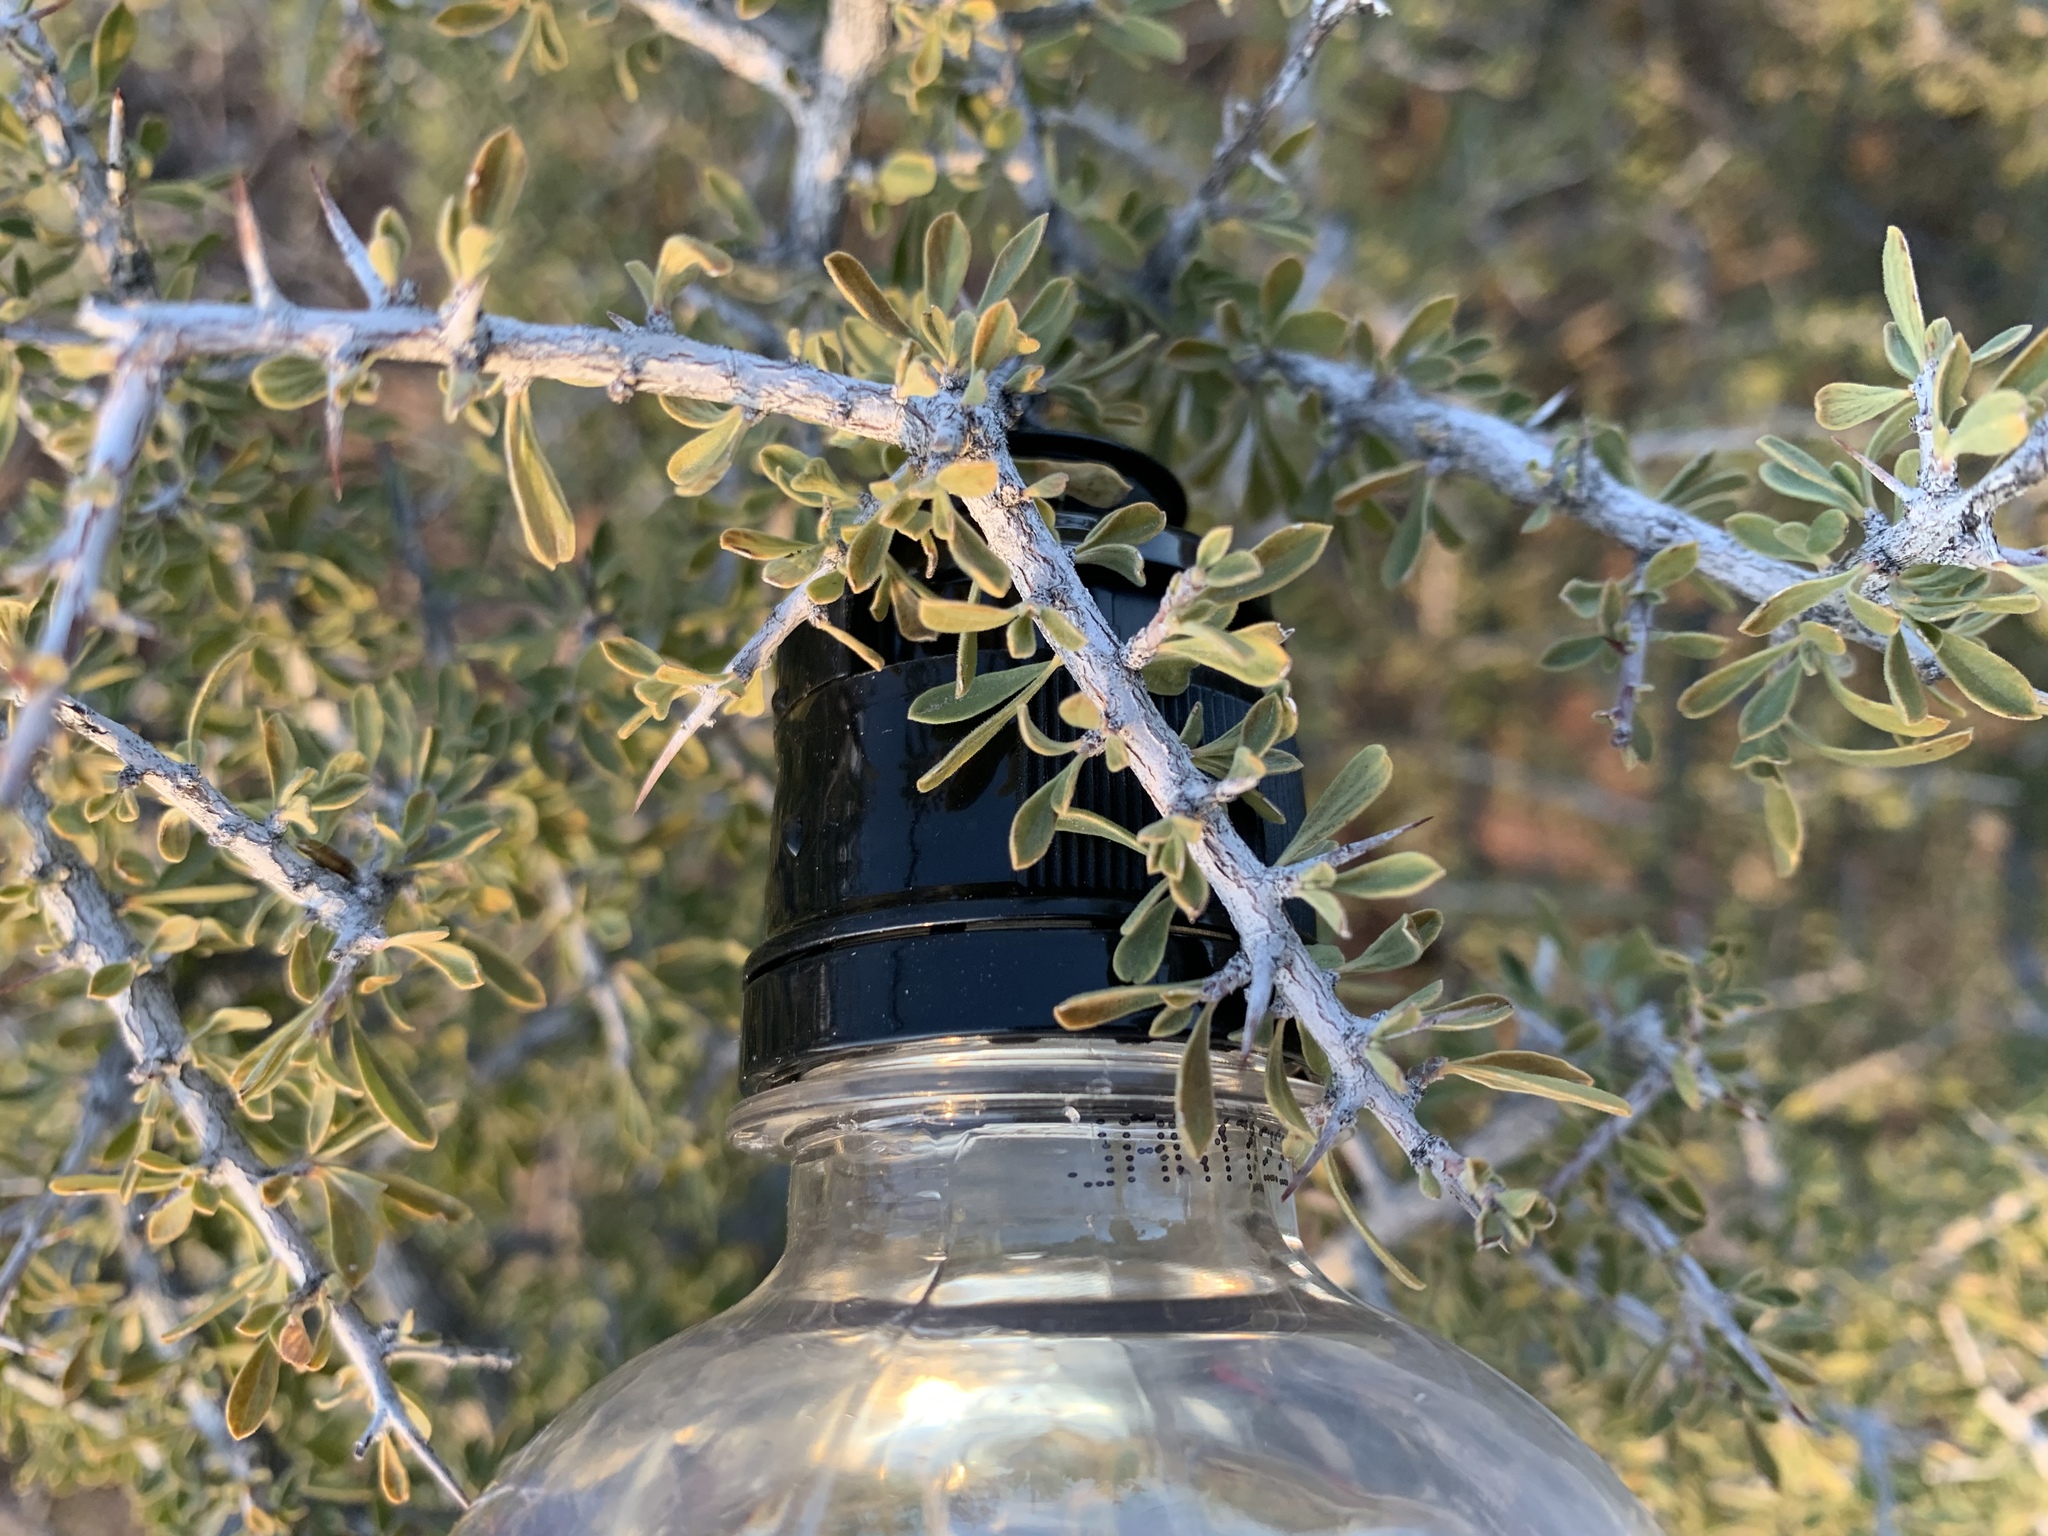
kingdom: Plantae
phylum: Tracheophyta
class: Magnoliopsida
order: Rosales
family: Rhamnaceae
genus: Condalia
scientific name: Condalia warnockii
